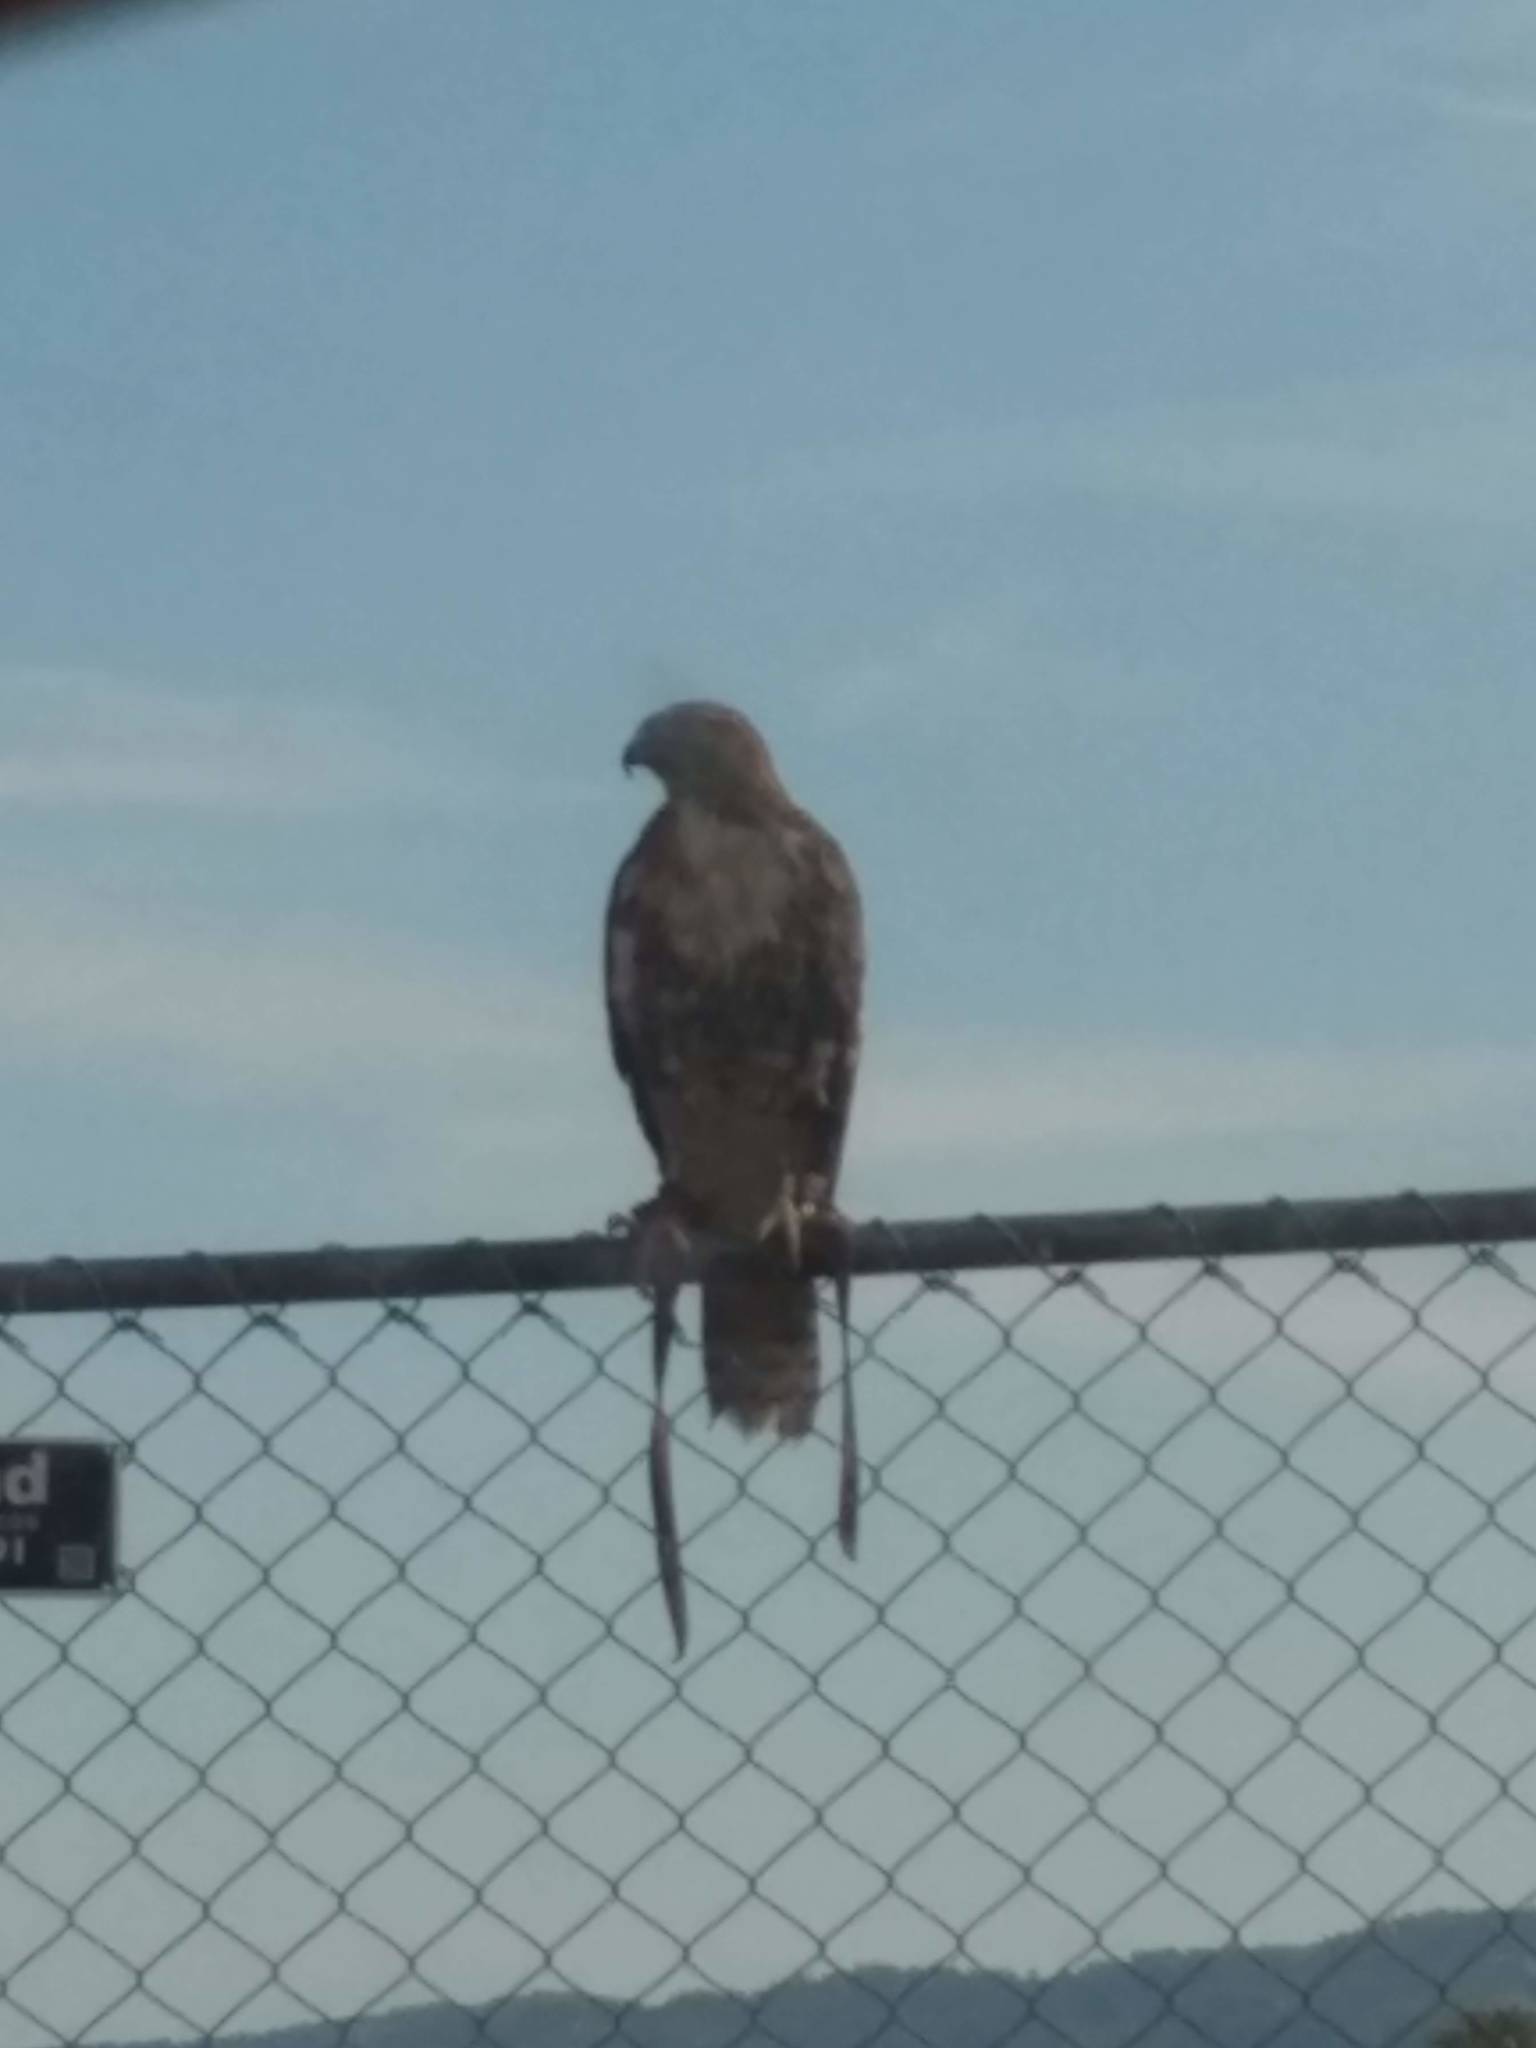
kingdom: Animalia
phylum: Chordata
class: Aves
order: Accipitriformes
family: Accipitridae
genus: Buteo
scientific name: Buteo jamaicensis
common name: Red-tailed hawk
